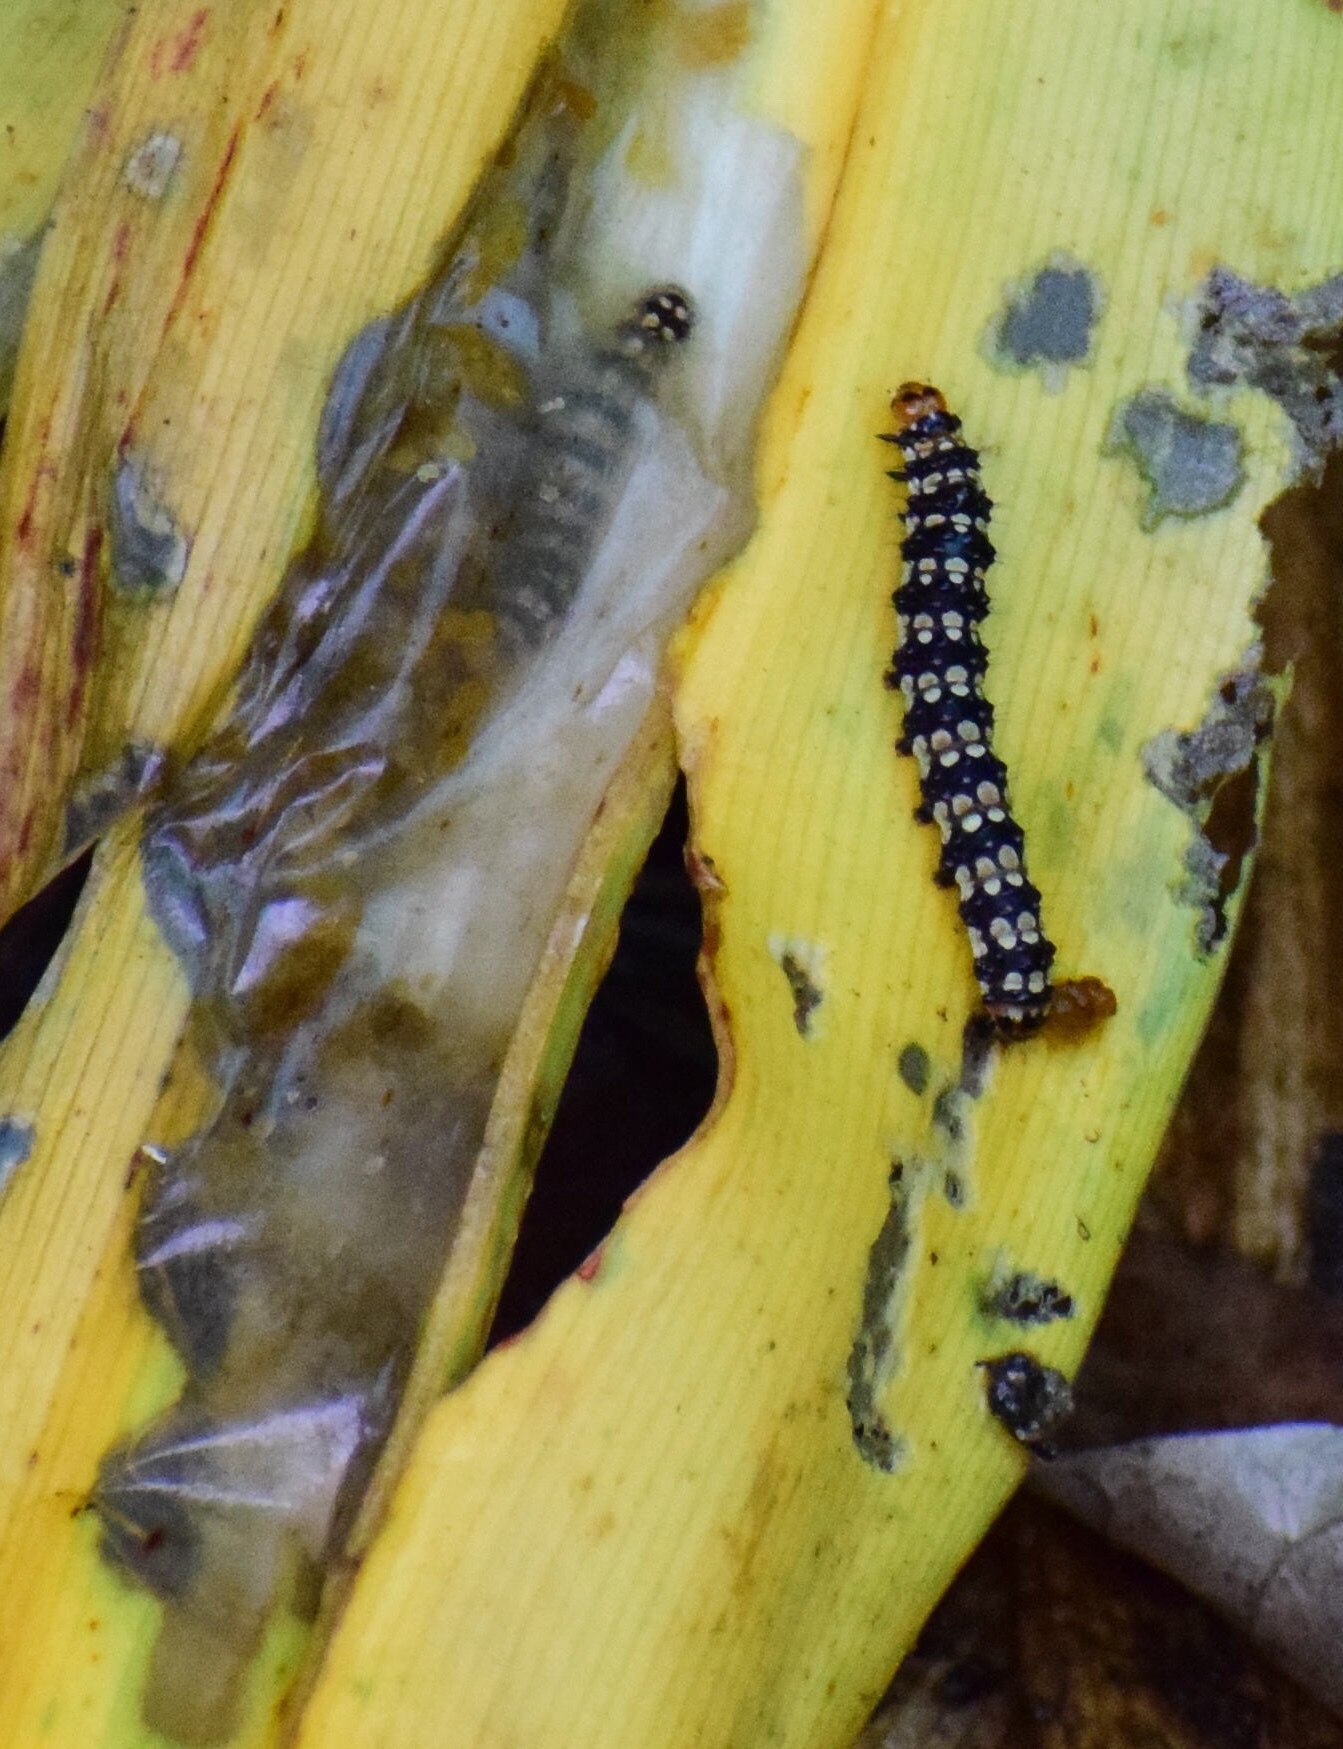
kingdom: Animalia
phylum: Arthropoda
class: Insecta
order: Lepidoptera
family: Noctuidae
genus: Brithys
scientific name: Brithys crini
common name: Kew arches
